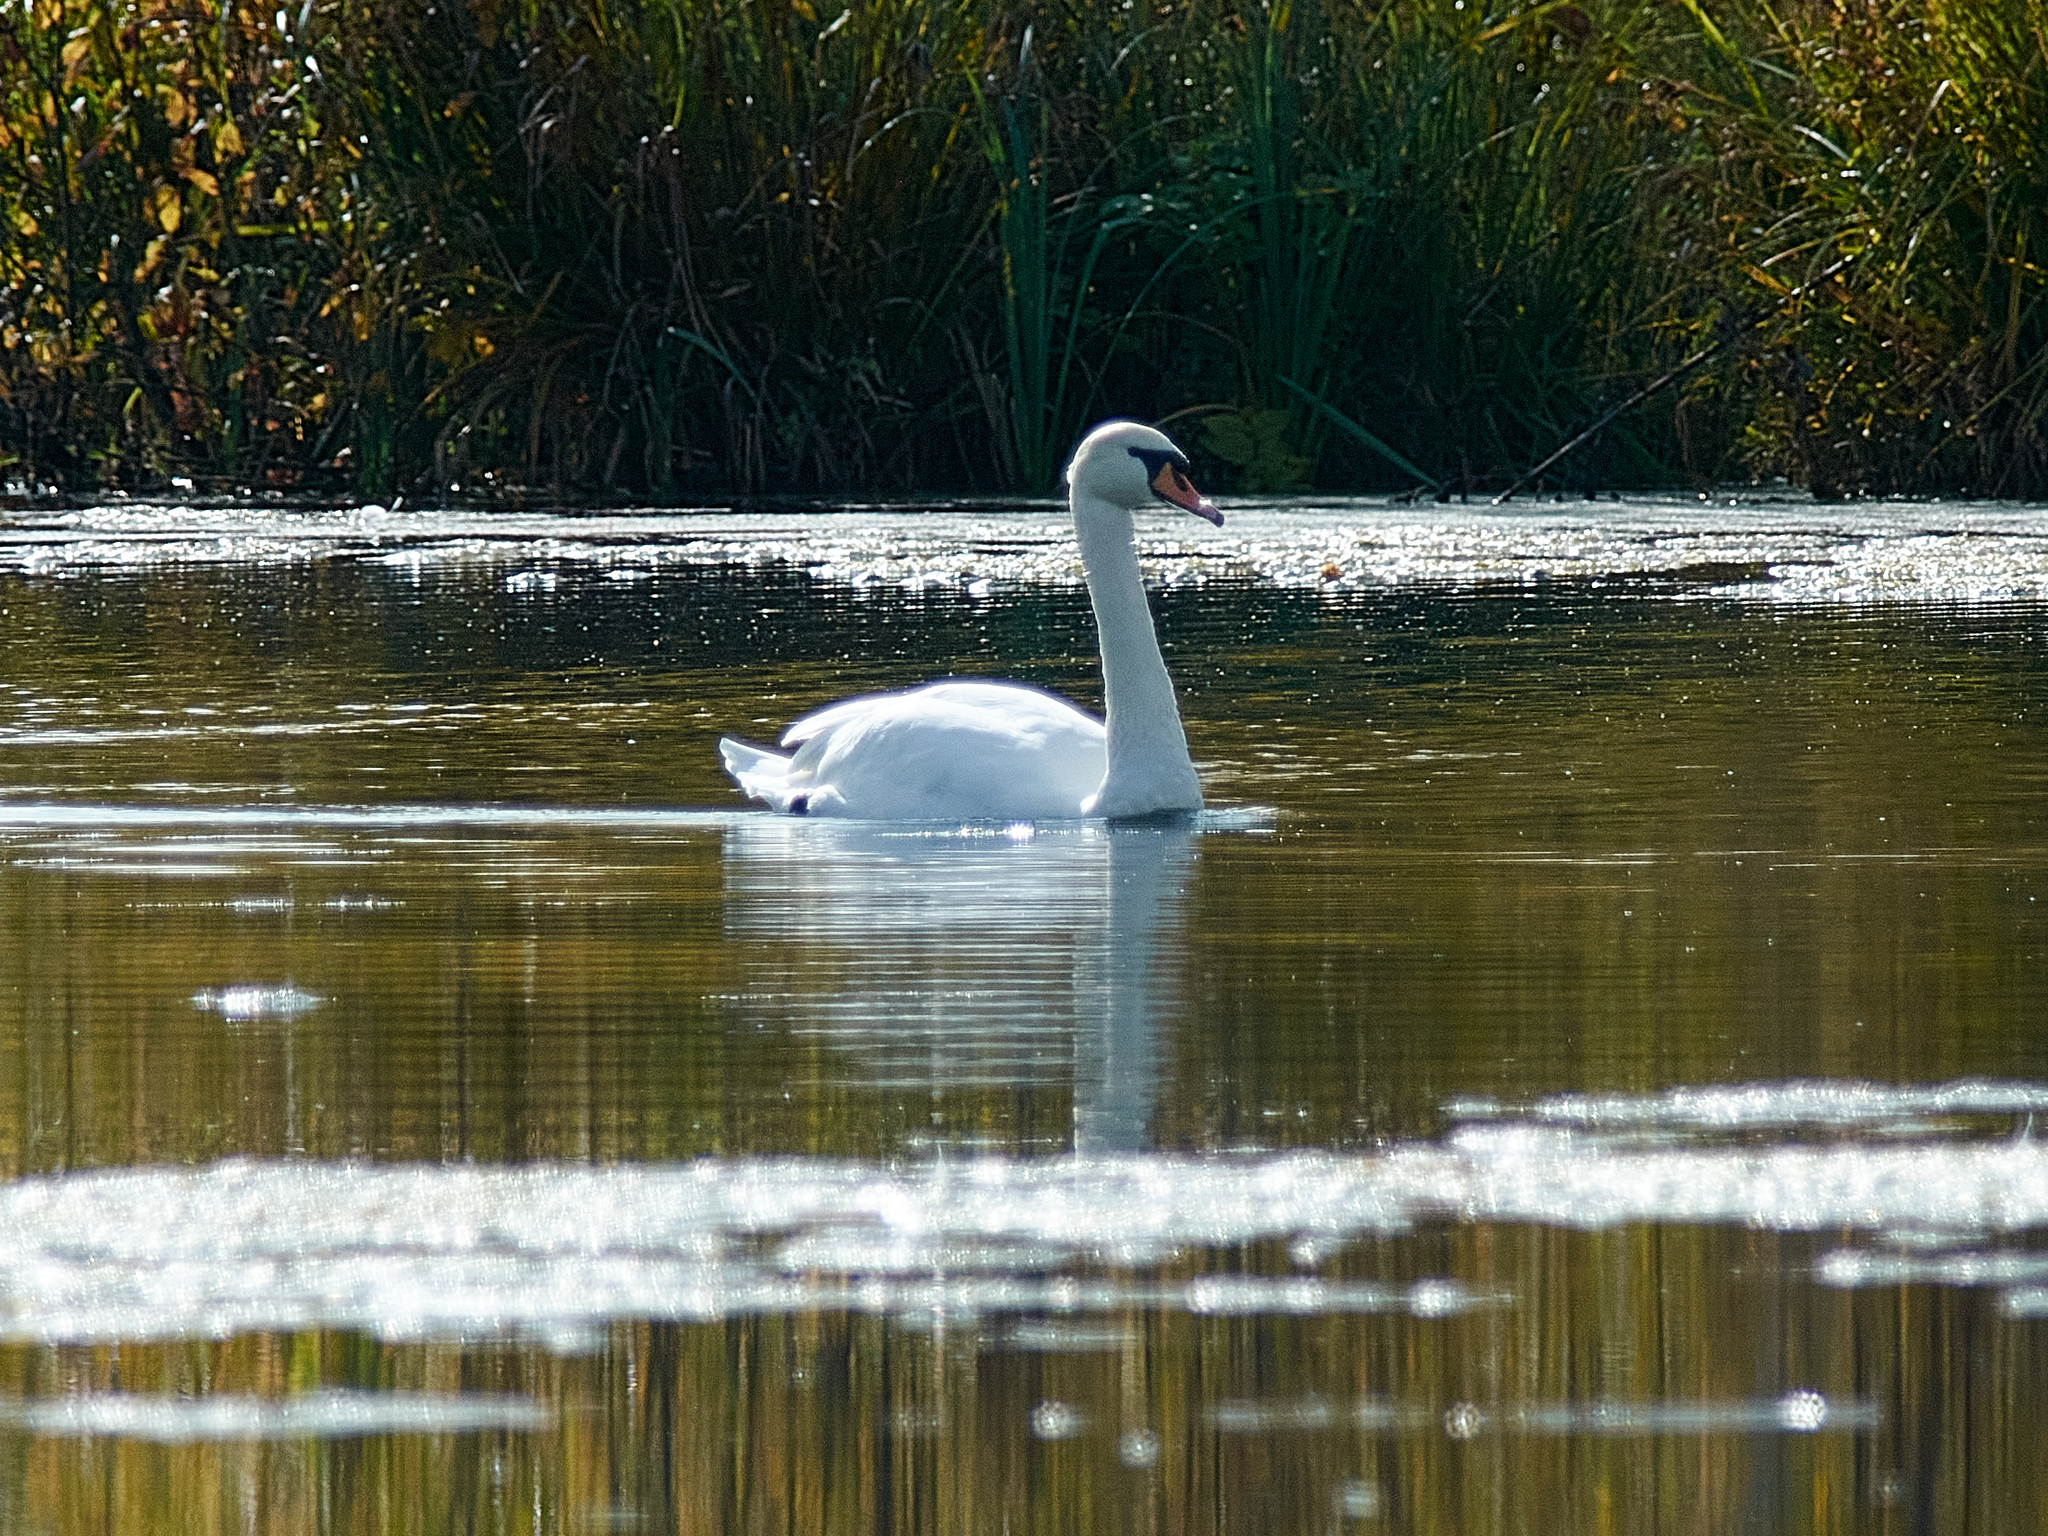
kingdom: Animalia
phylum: Chordata
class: Aves
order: Anseriformes
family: Anatidae
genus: Cygnus
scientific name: Cygnus olor
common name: Mute swan
